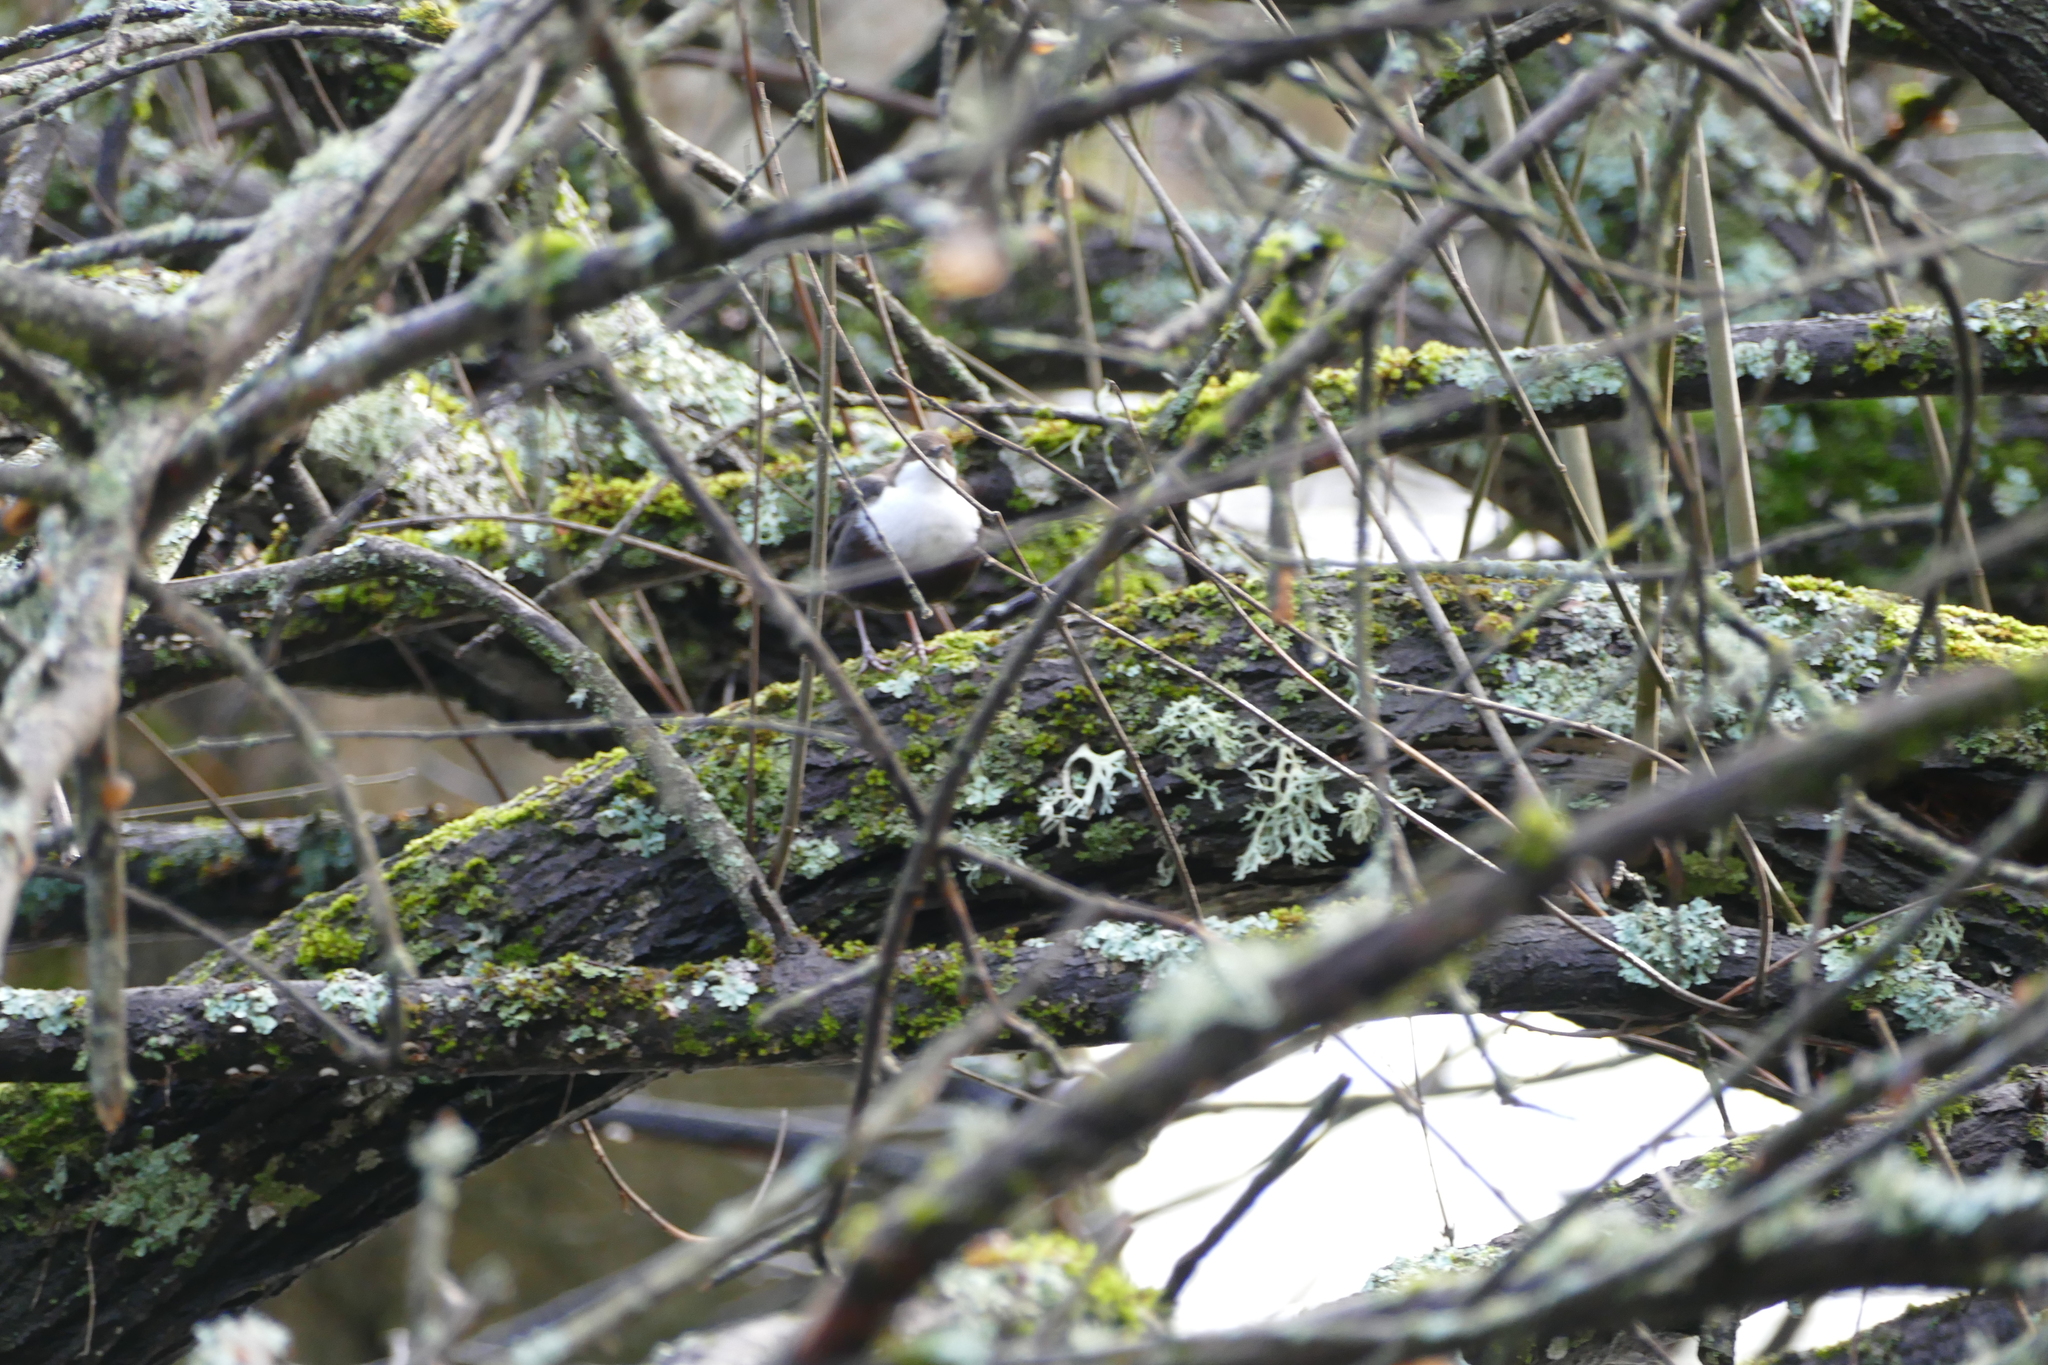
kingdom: Animalia
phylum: Chordata
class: Aves
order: Passeriformes
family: Cinclidae
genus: Cinclus
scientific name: Cinclus cinclus
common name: White-throated dipper
